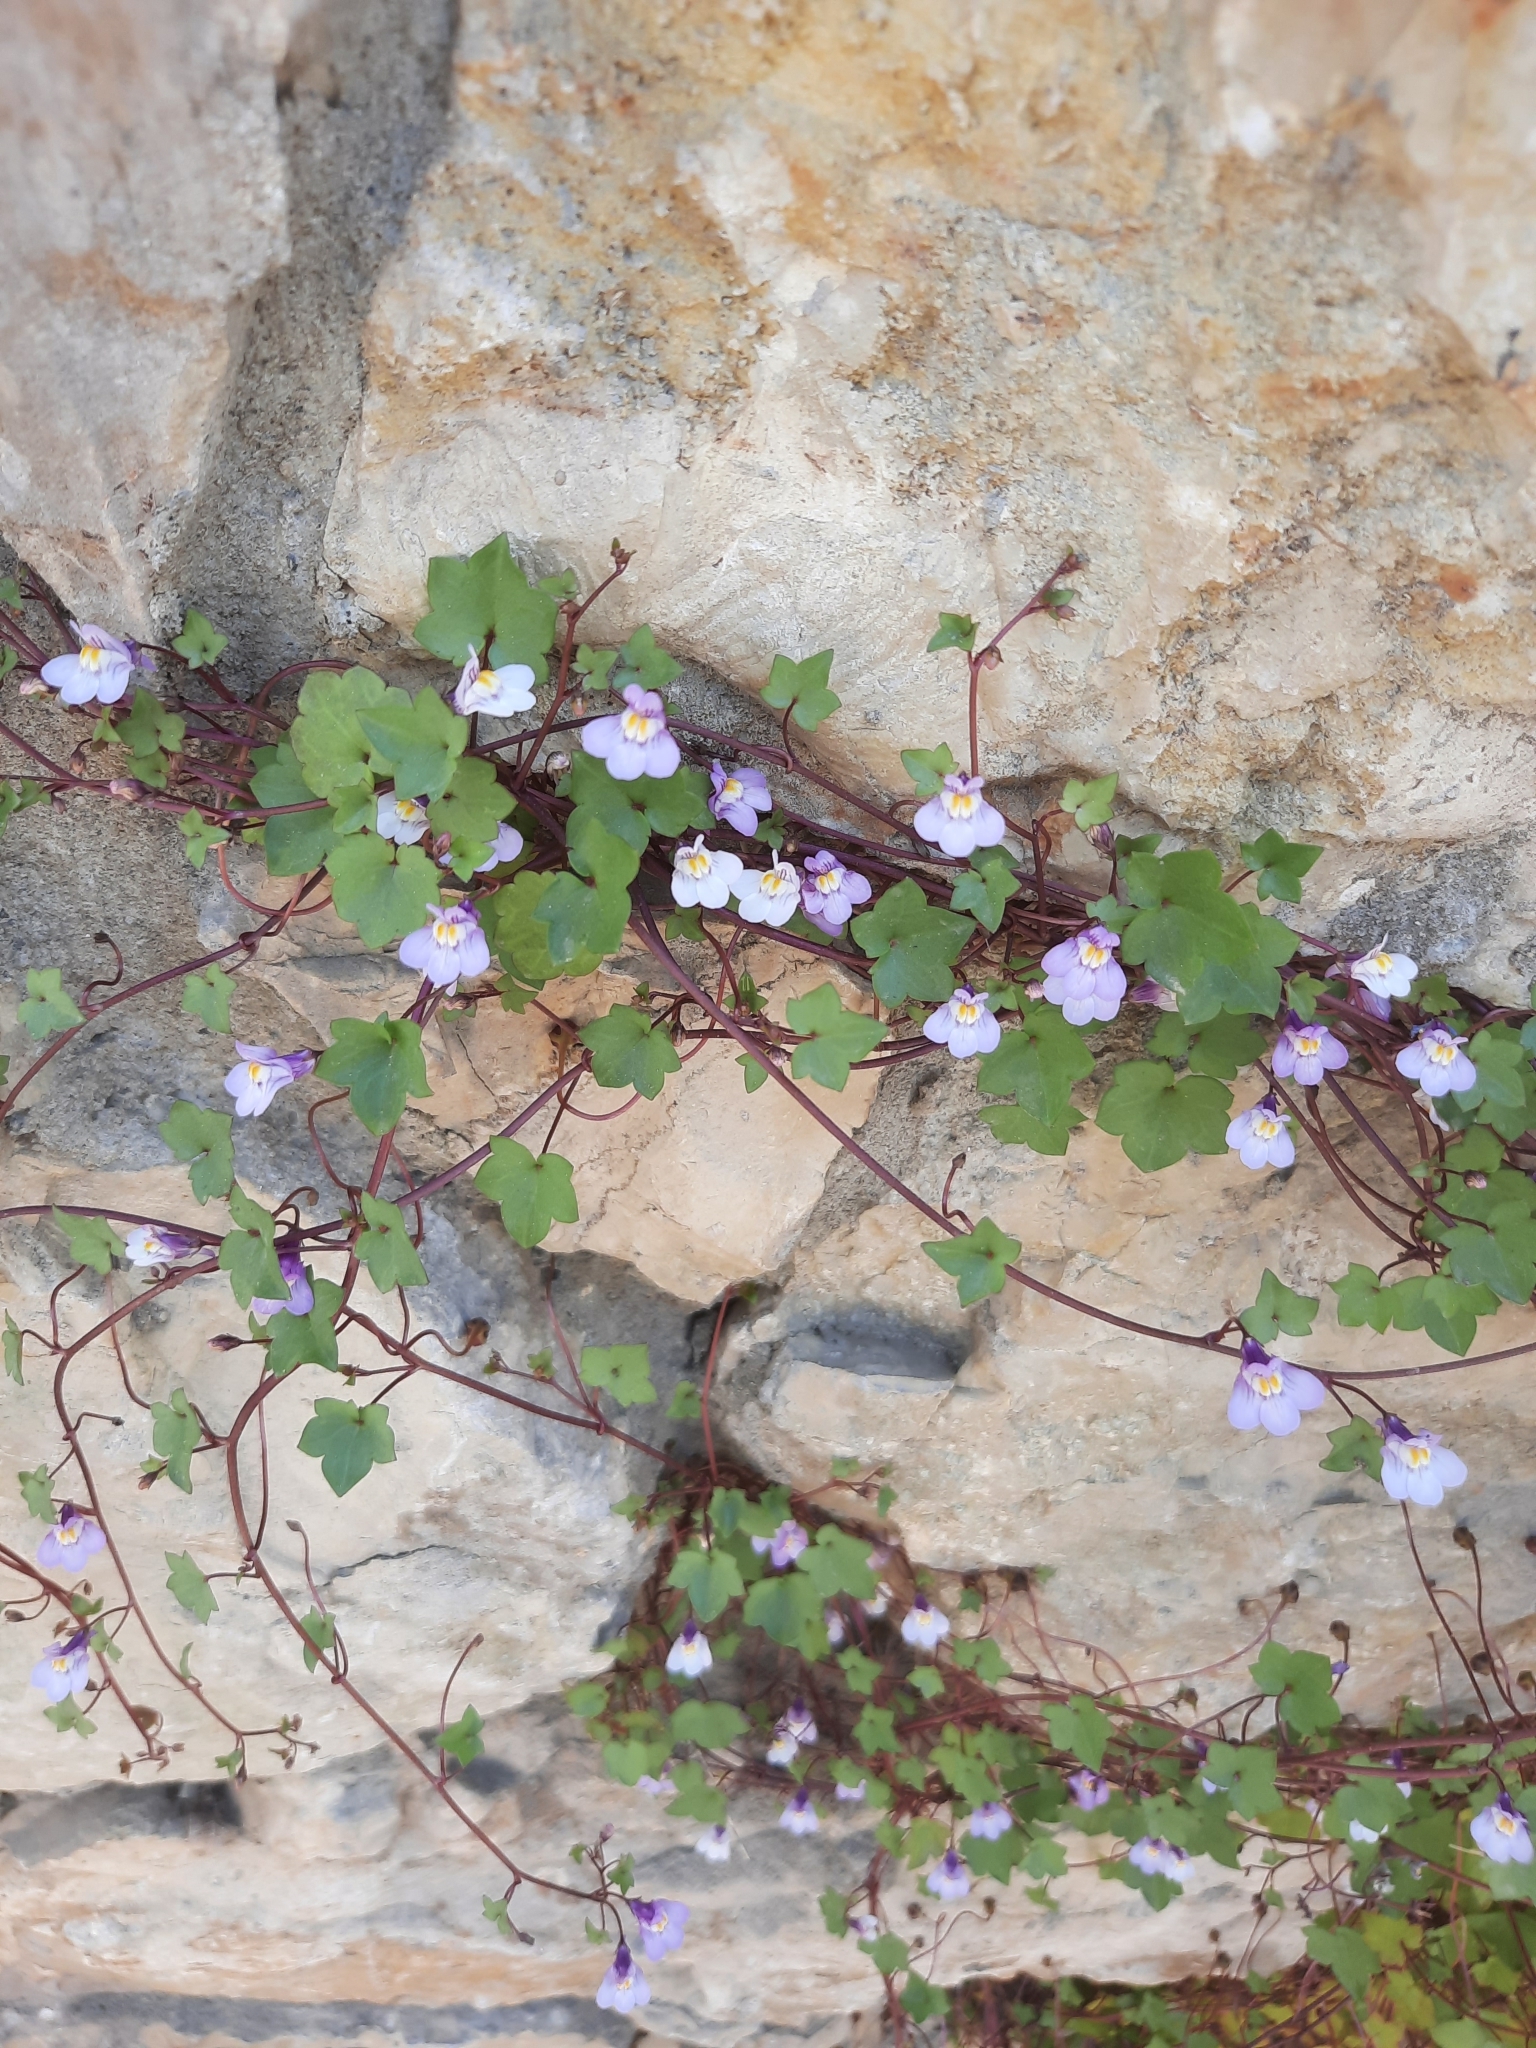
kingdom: Plantae
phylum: Tracheophyta
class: Magnoliopsida
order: Lamiales
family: Plantaginaceae
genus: Cymbalaria
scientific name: Cymbalaria muralis
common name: Ivy-leaved toadflax
